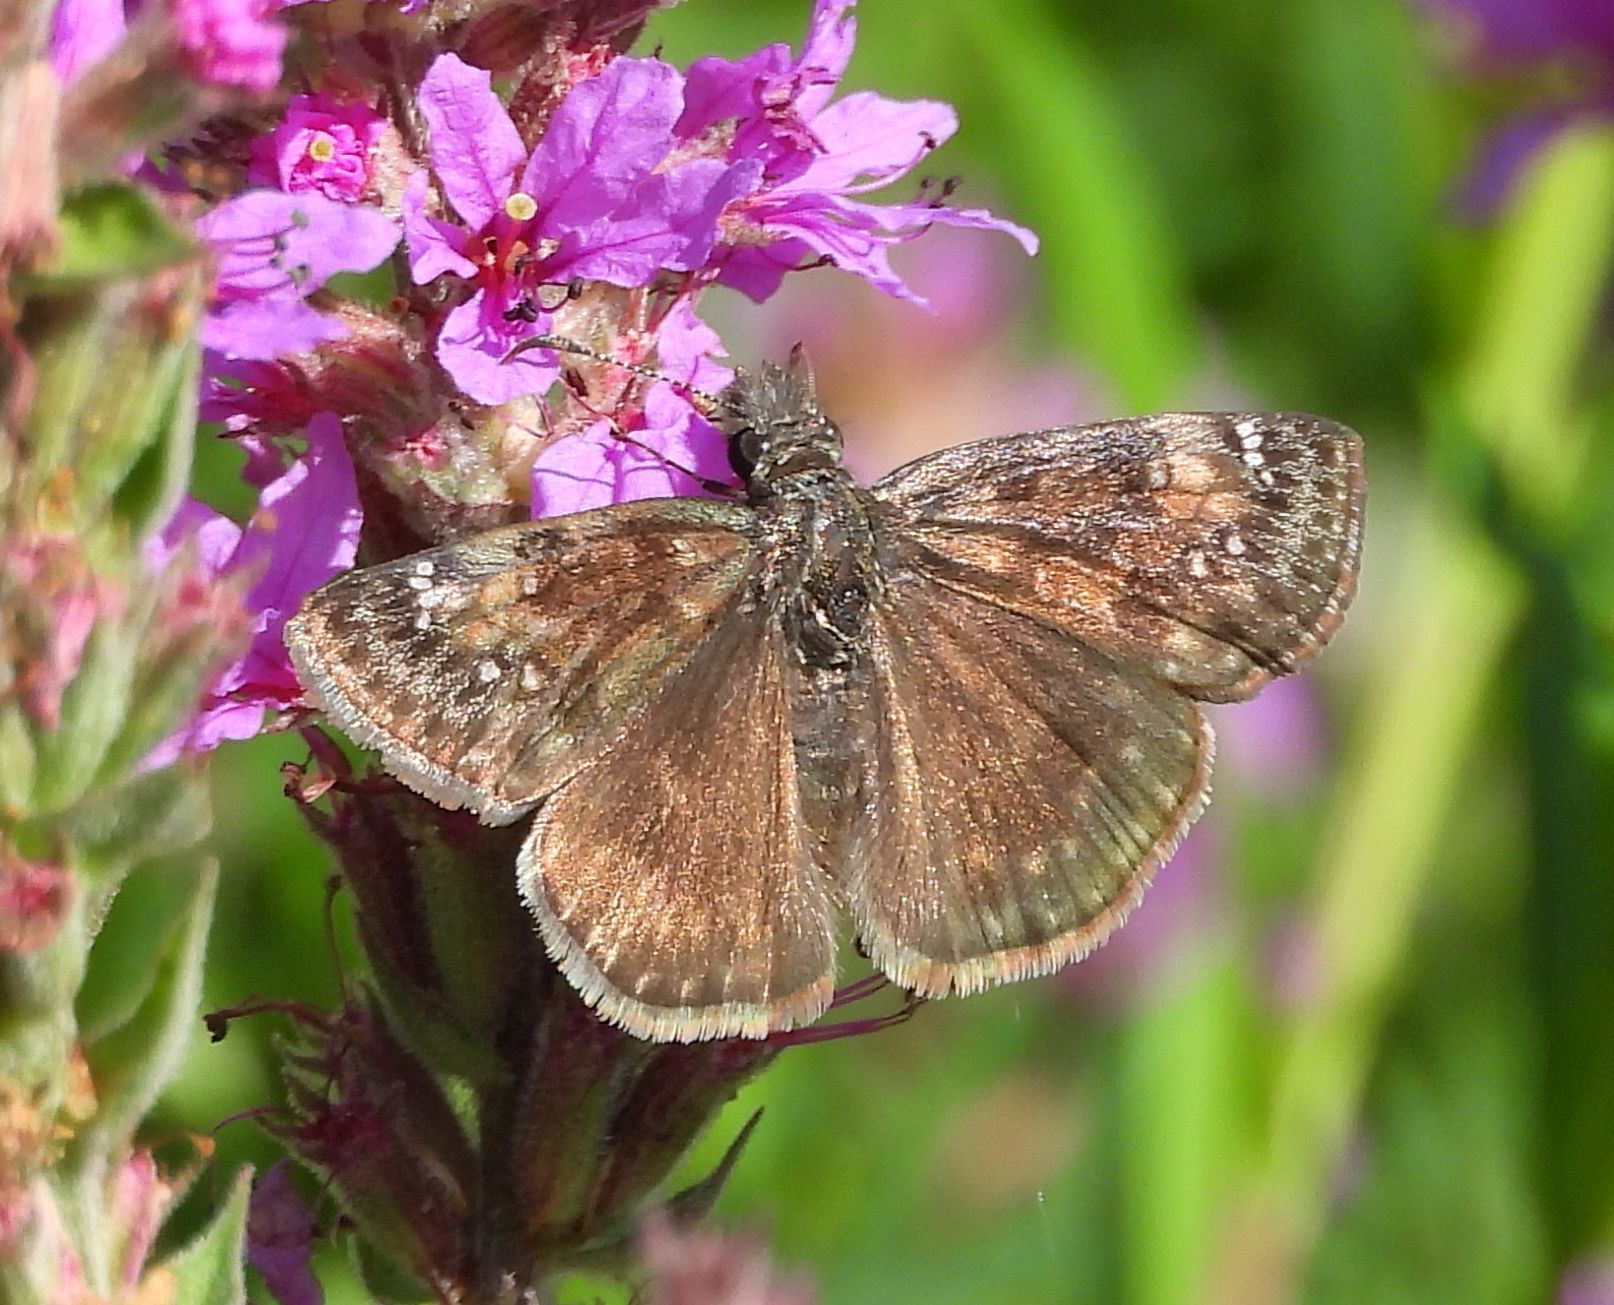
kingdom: Animalia
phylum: Arthropoda
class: Insecta
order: Lepidoptera
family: Hesperiidae
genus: Erynnis
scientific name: Erynnis baptisiae
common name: Wild indigo duskywing
